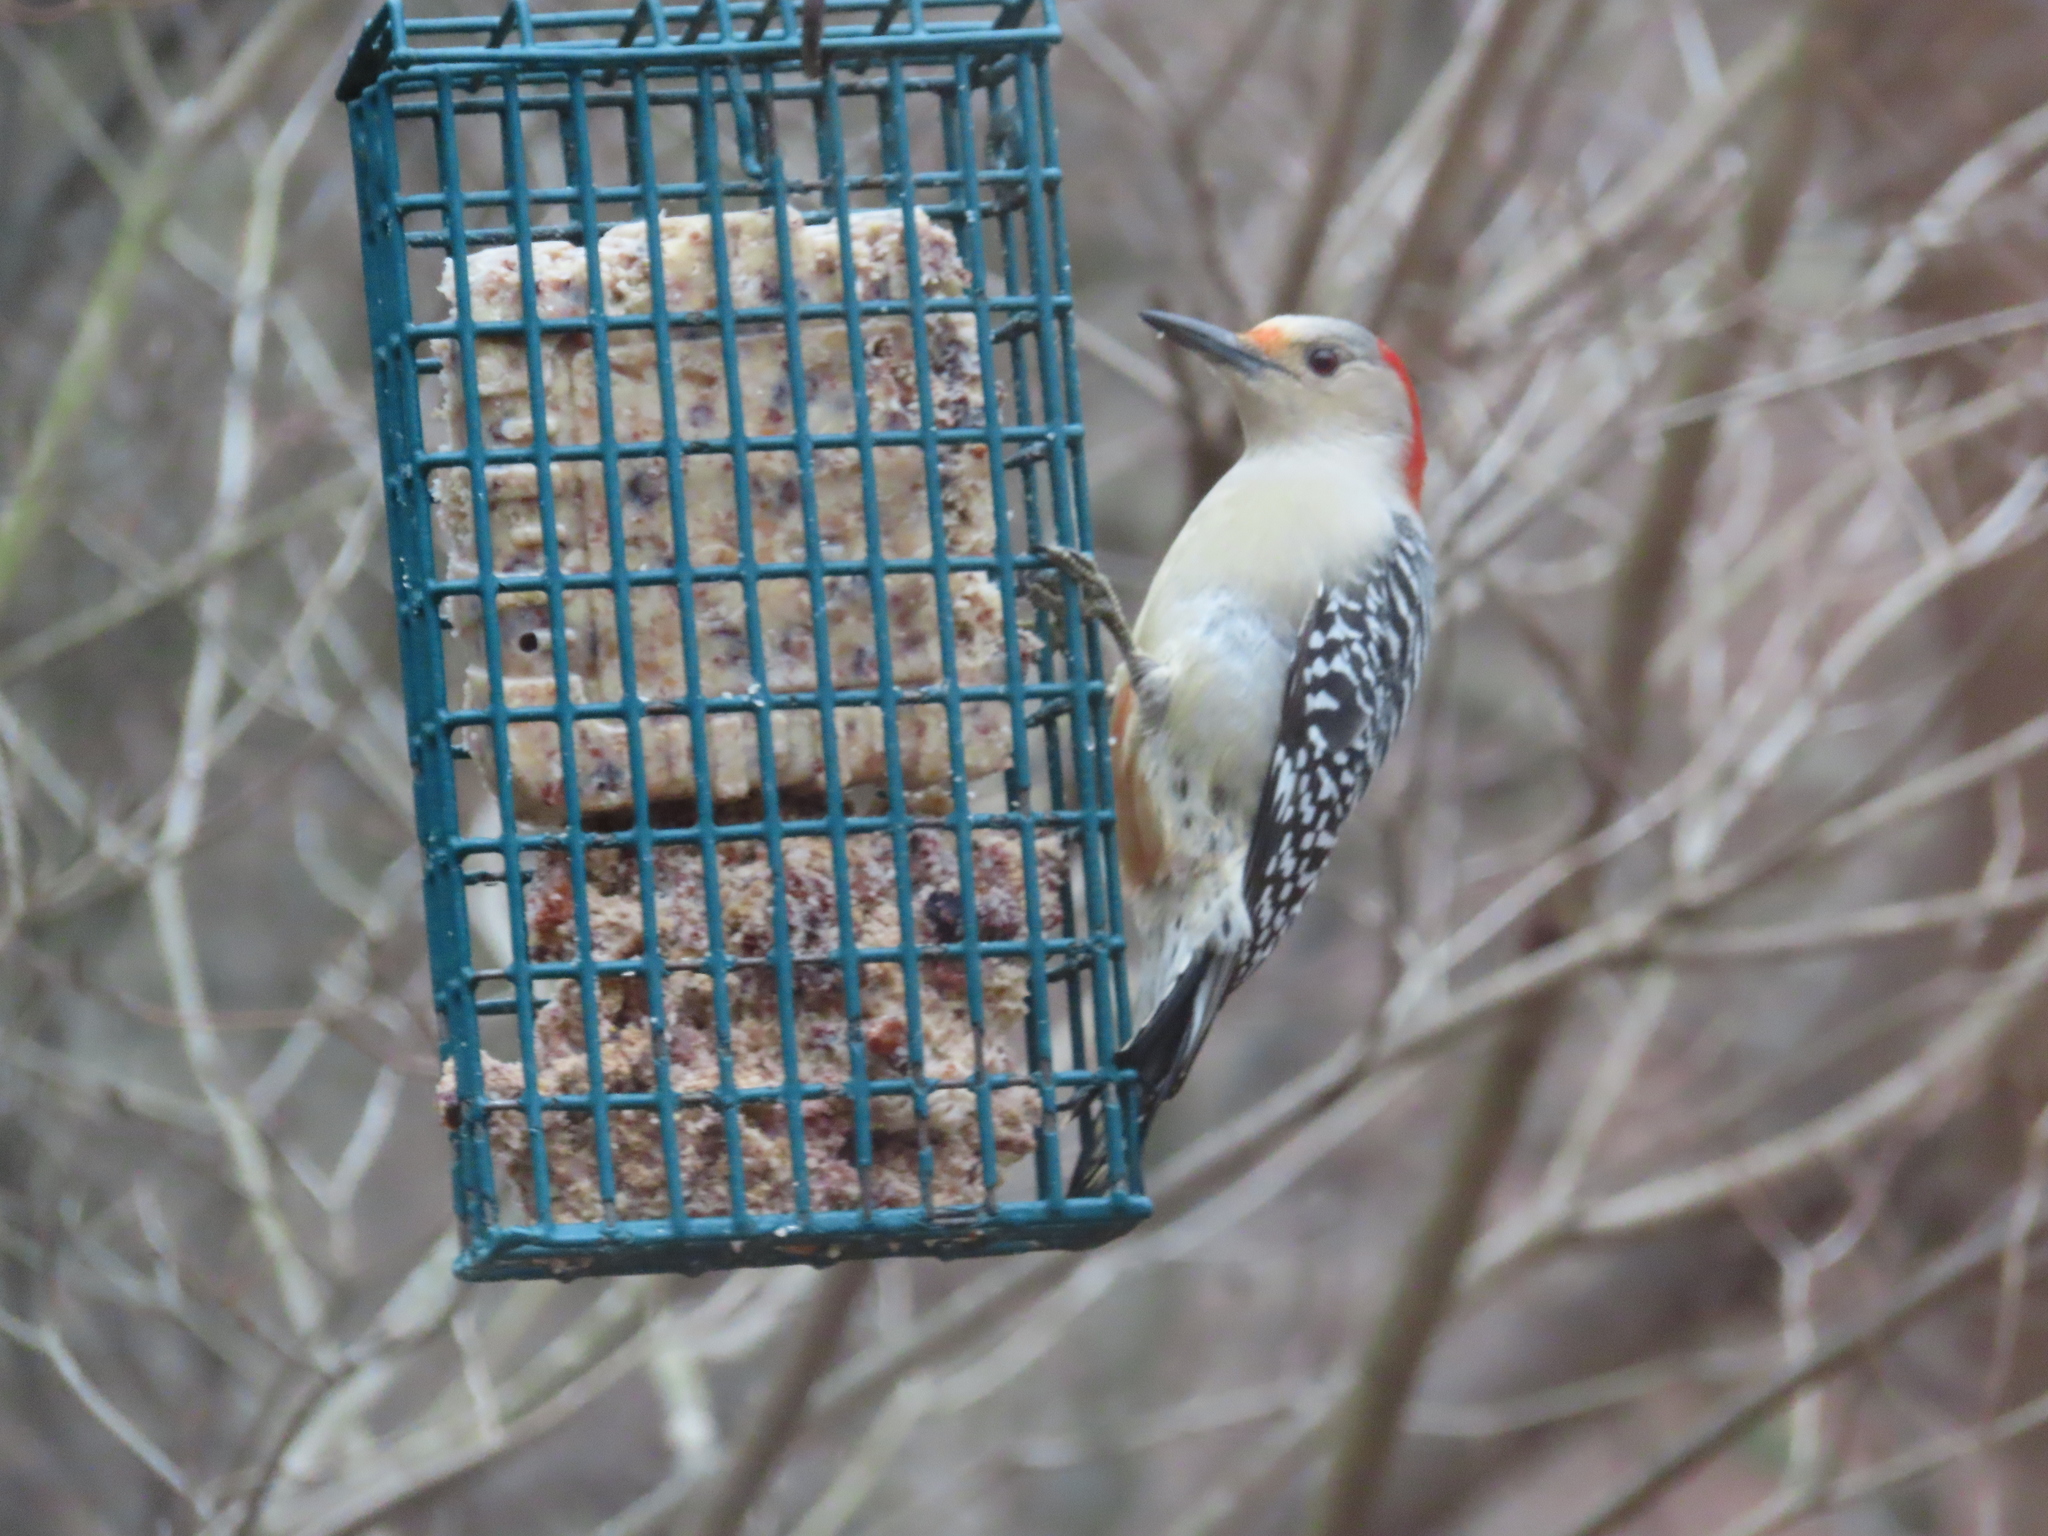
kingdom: Animalia
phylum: Chordata
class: Aves
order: Piciformes
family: Picidae
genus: Melanerpes
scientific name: Melanerpes carolinus
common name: Red-bellied woodpecker
